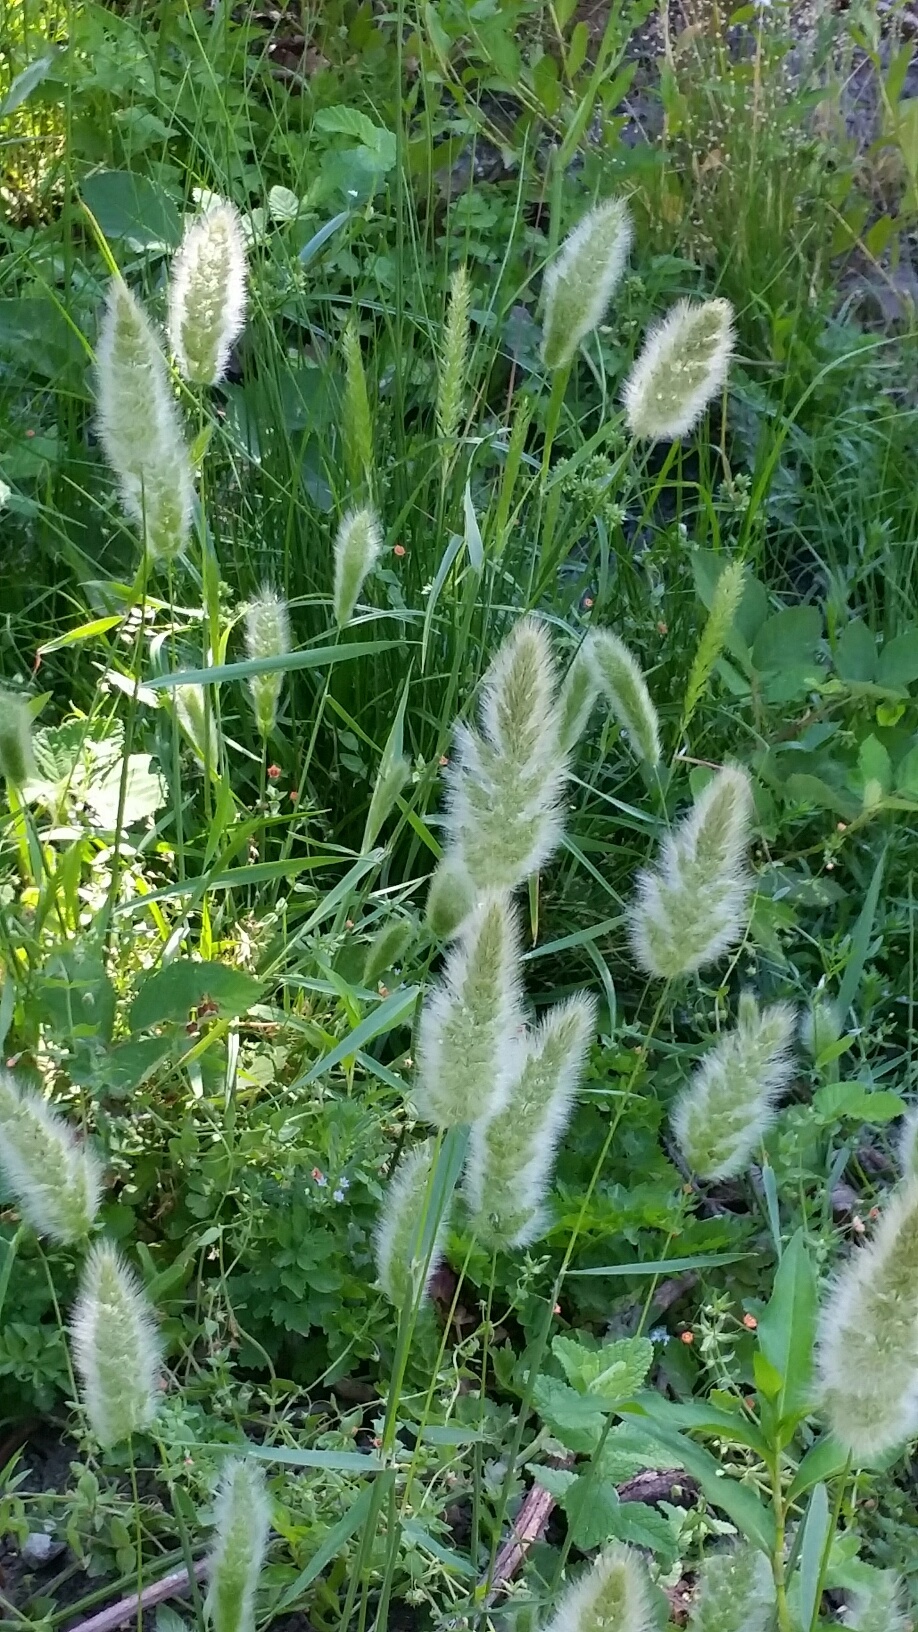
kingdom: Plantae
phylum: Tracheophyta
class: Liliopsida
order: Poales
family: Poaceae
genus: Polypogon
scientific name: Polypogon monspeliensis
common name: Annual rabbitsfoot grass
